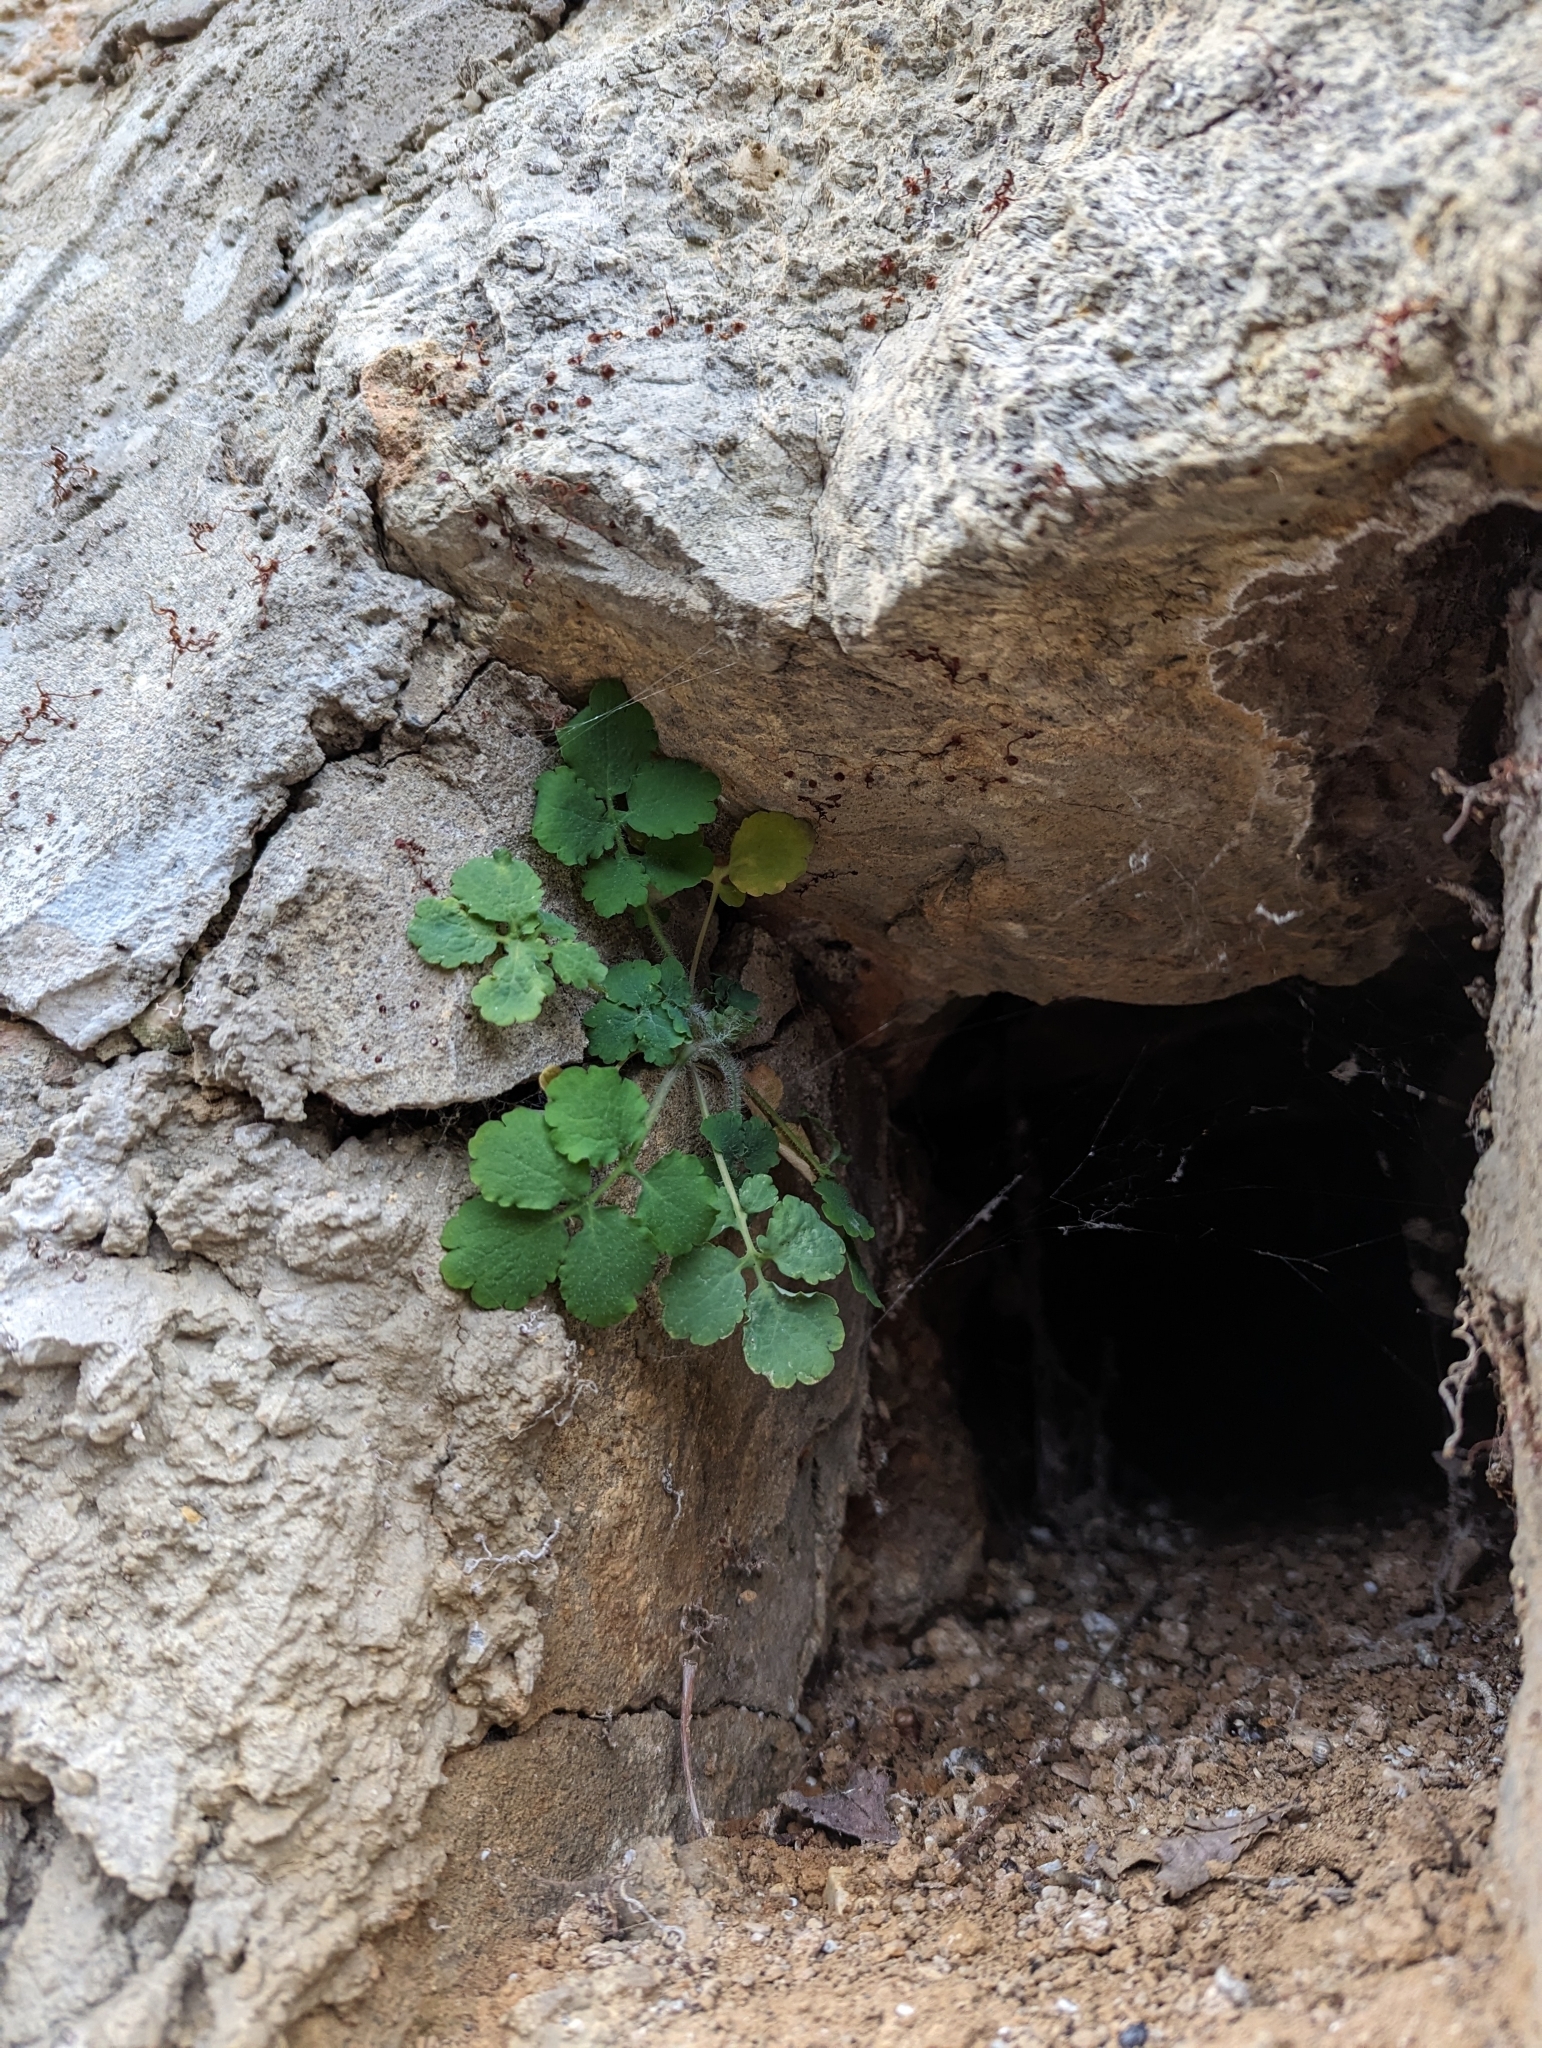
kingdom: Plantae
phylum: Tracheophyta
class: Magnoliopsida
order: Ranunculales
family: Papaveraceae
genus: Chelidonium
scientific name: Chelidonium majus
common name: Greater celandine
